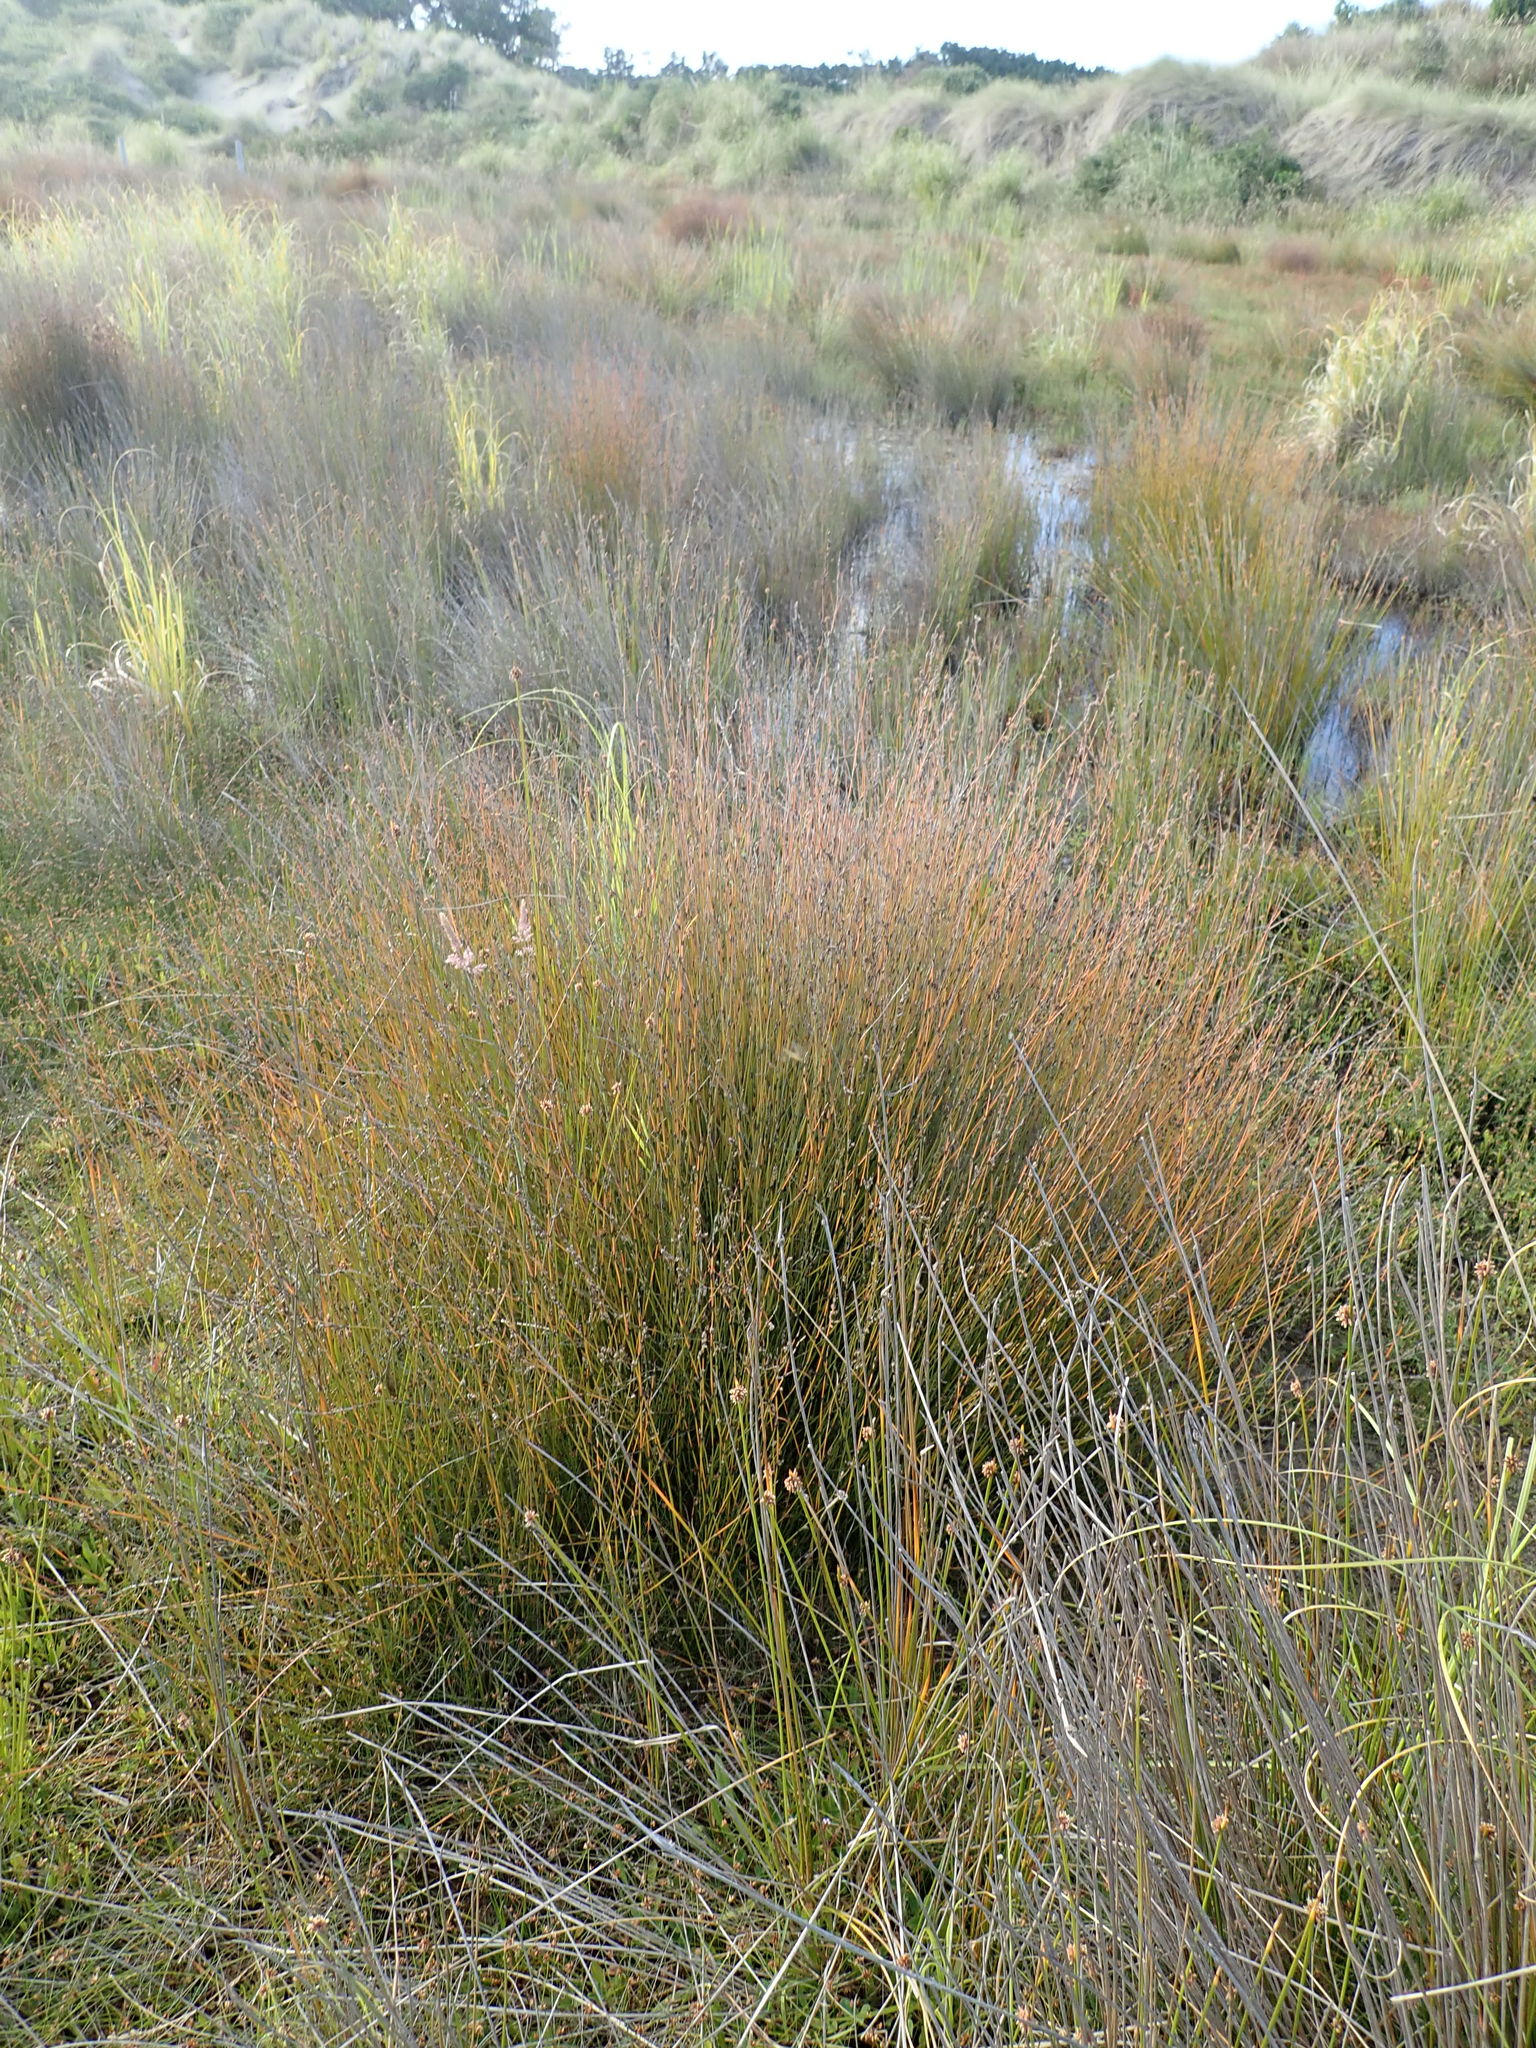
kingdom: Plantae
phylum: Tracheophyta
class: Liliopsida
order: Poales
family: Restionaceae
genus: Apodasmia
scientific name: Apodasmia similis
